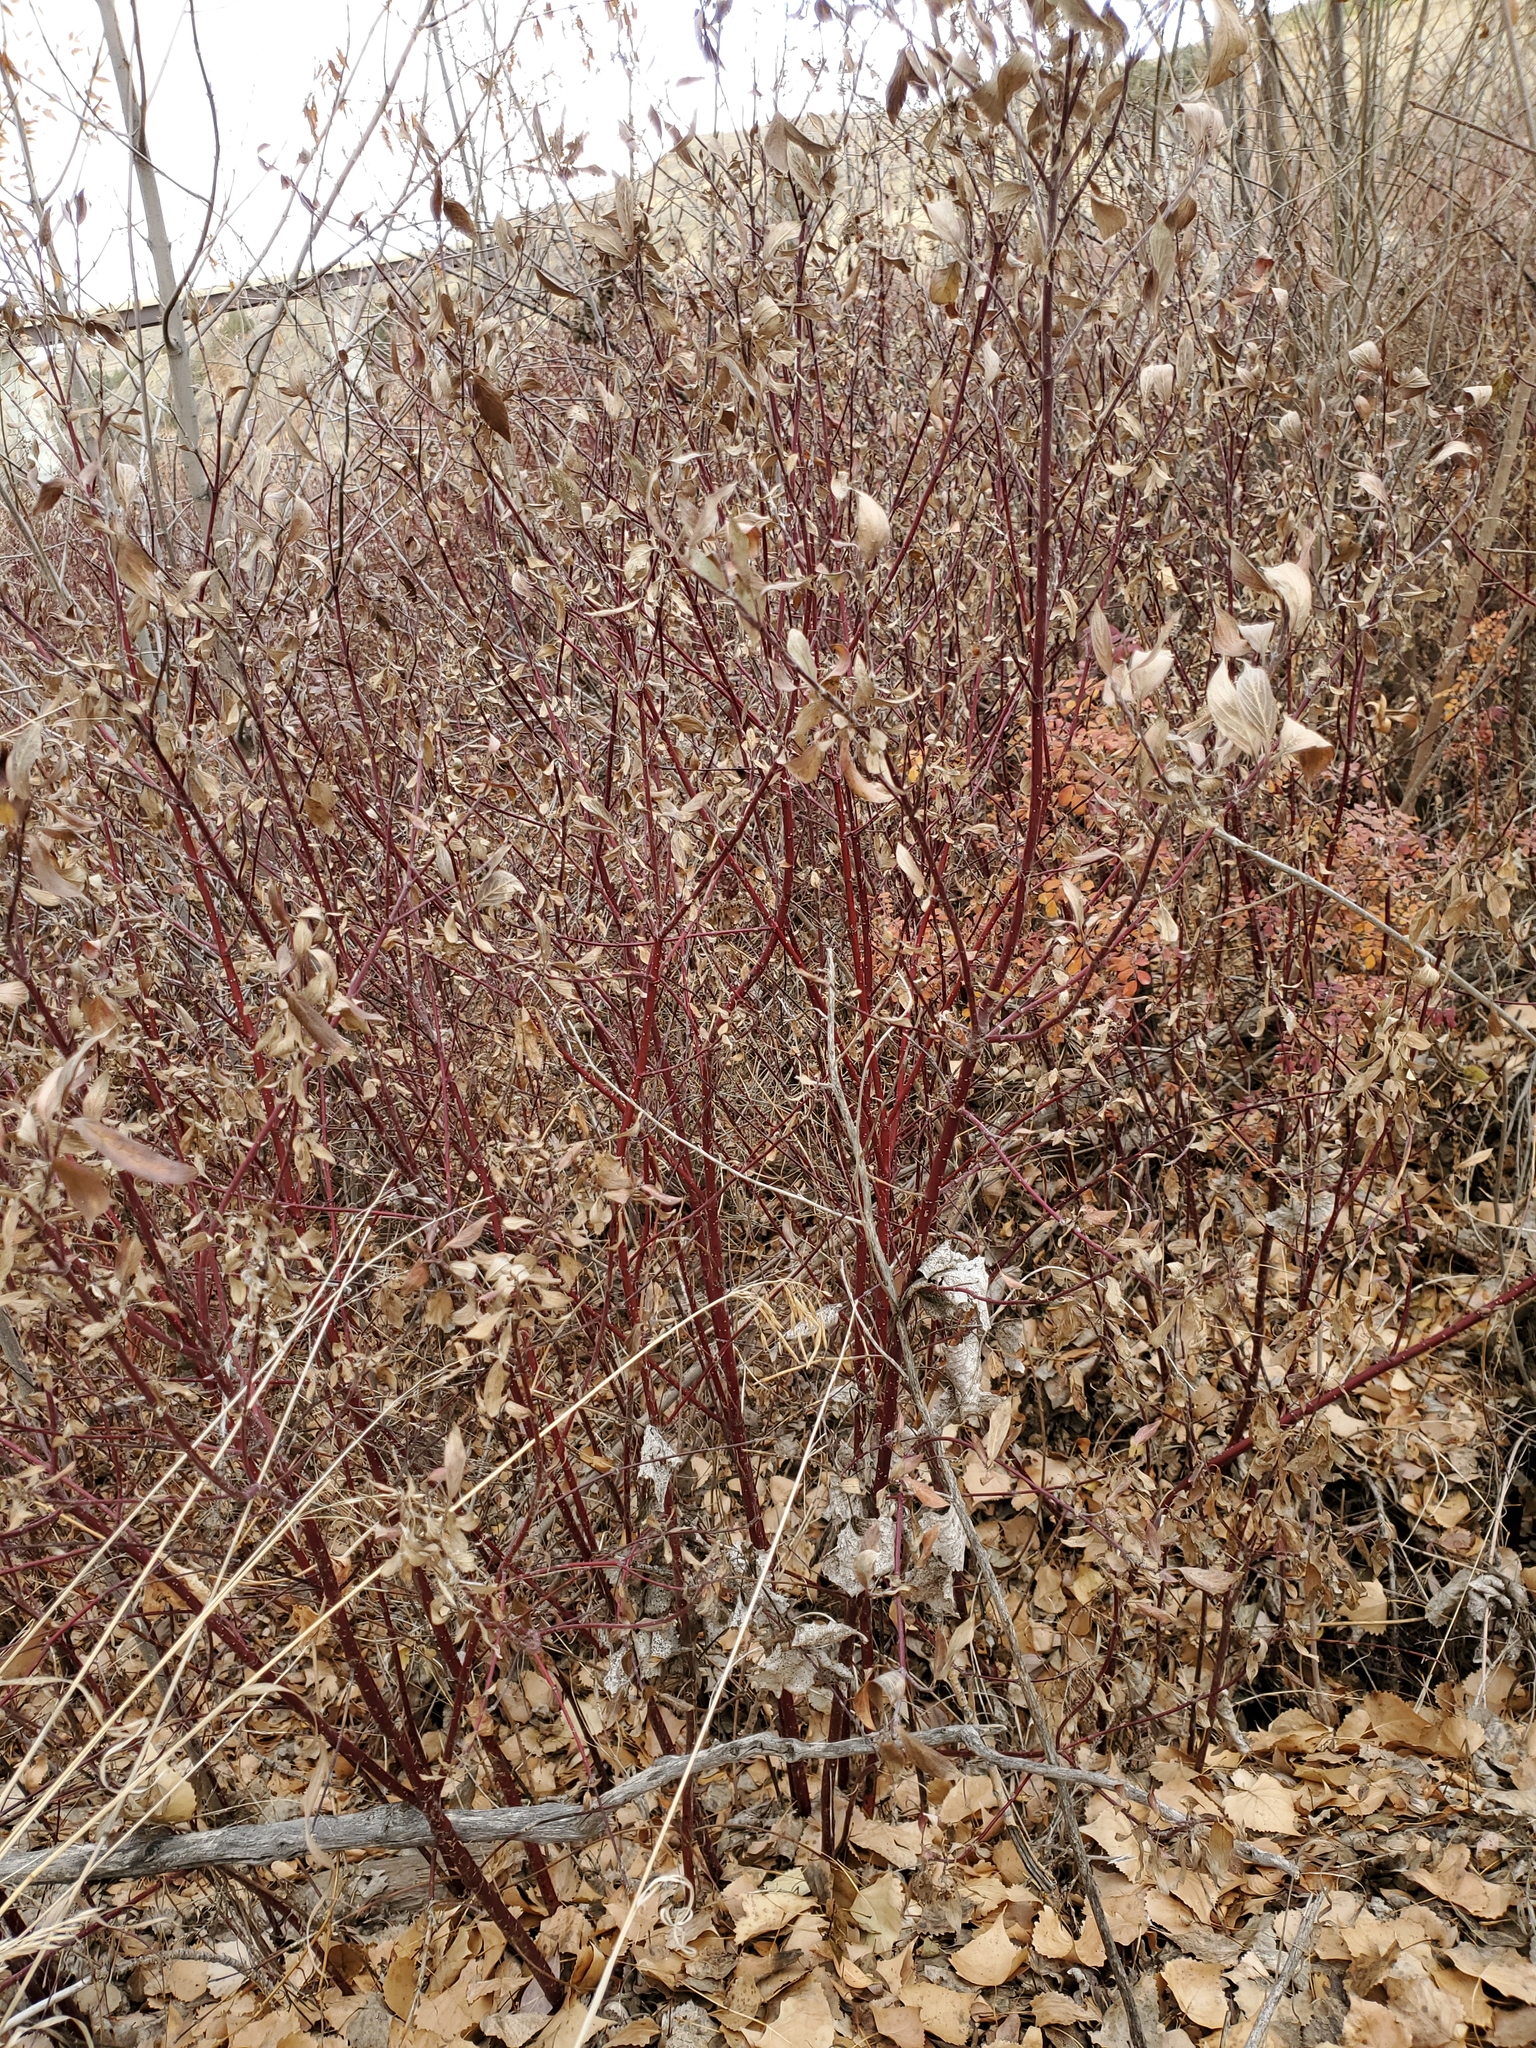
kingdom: Plantae
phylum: Tracheophyta
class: Magnoliopsida
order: Cornales
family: Cornaceae
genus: Cornus
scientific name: Cornus sericea
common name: Red-osier dogwood
